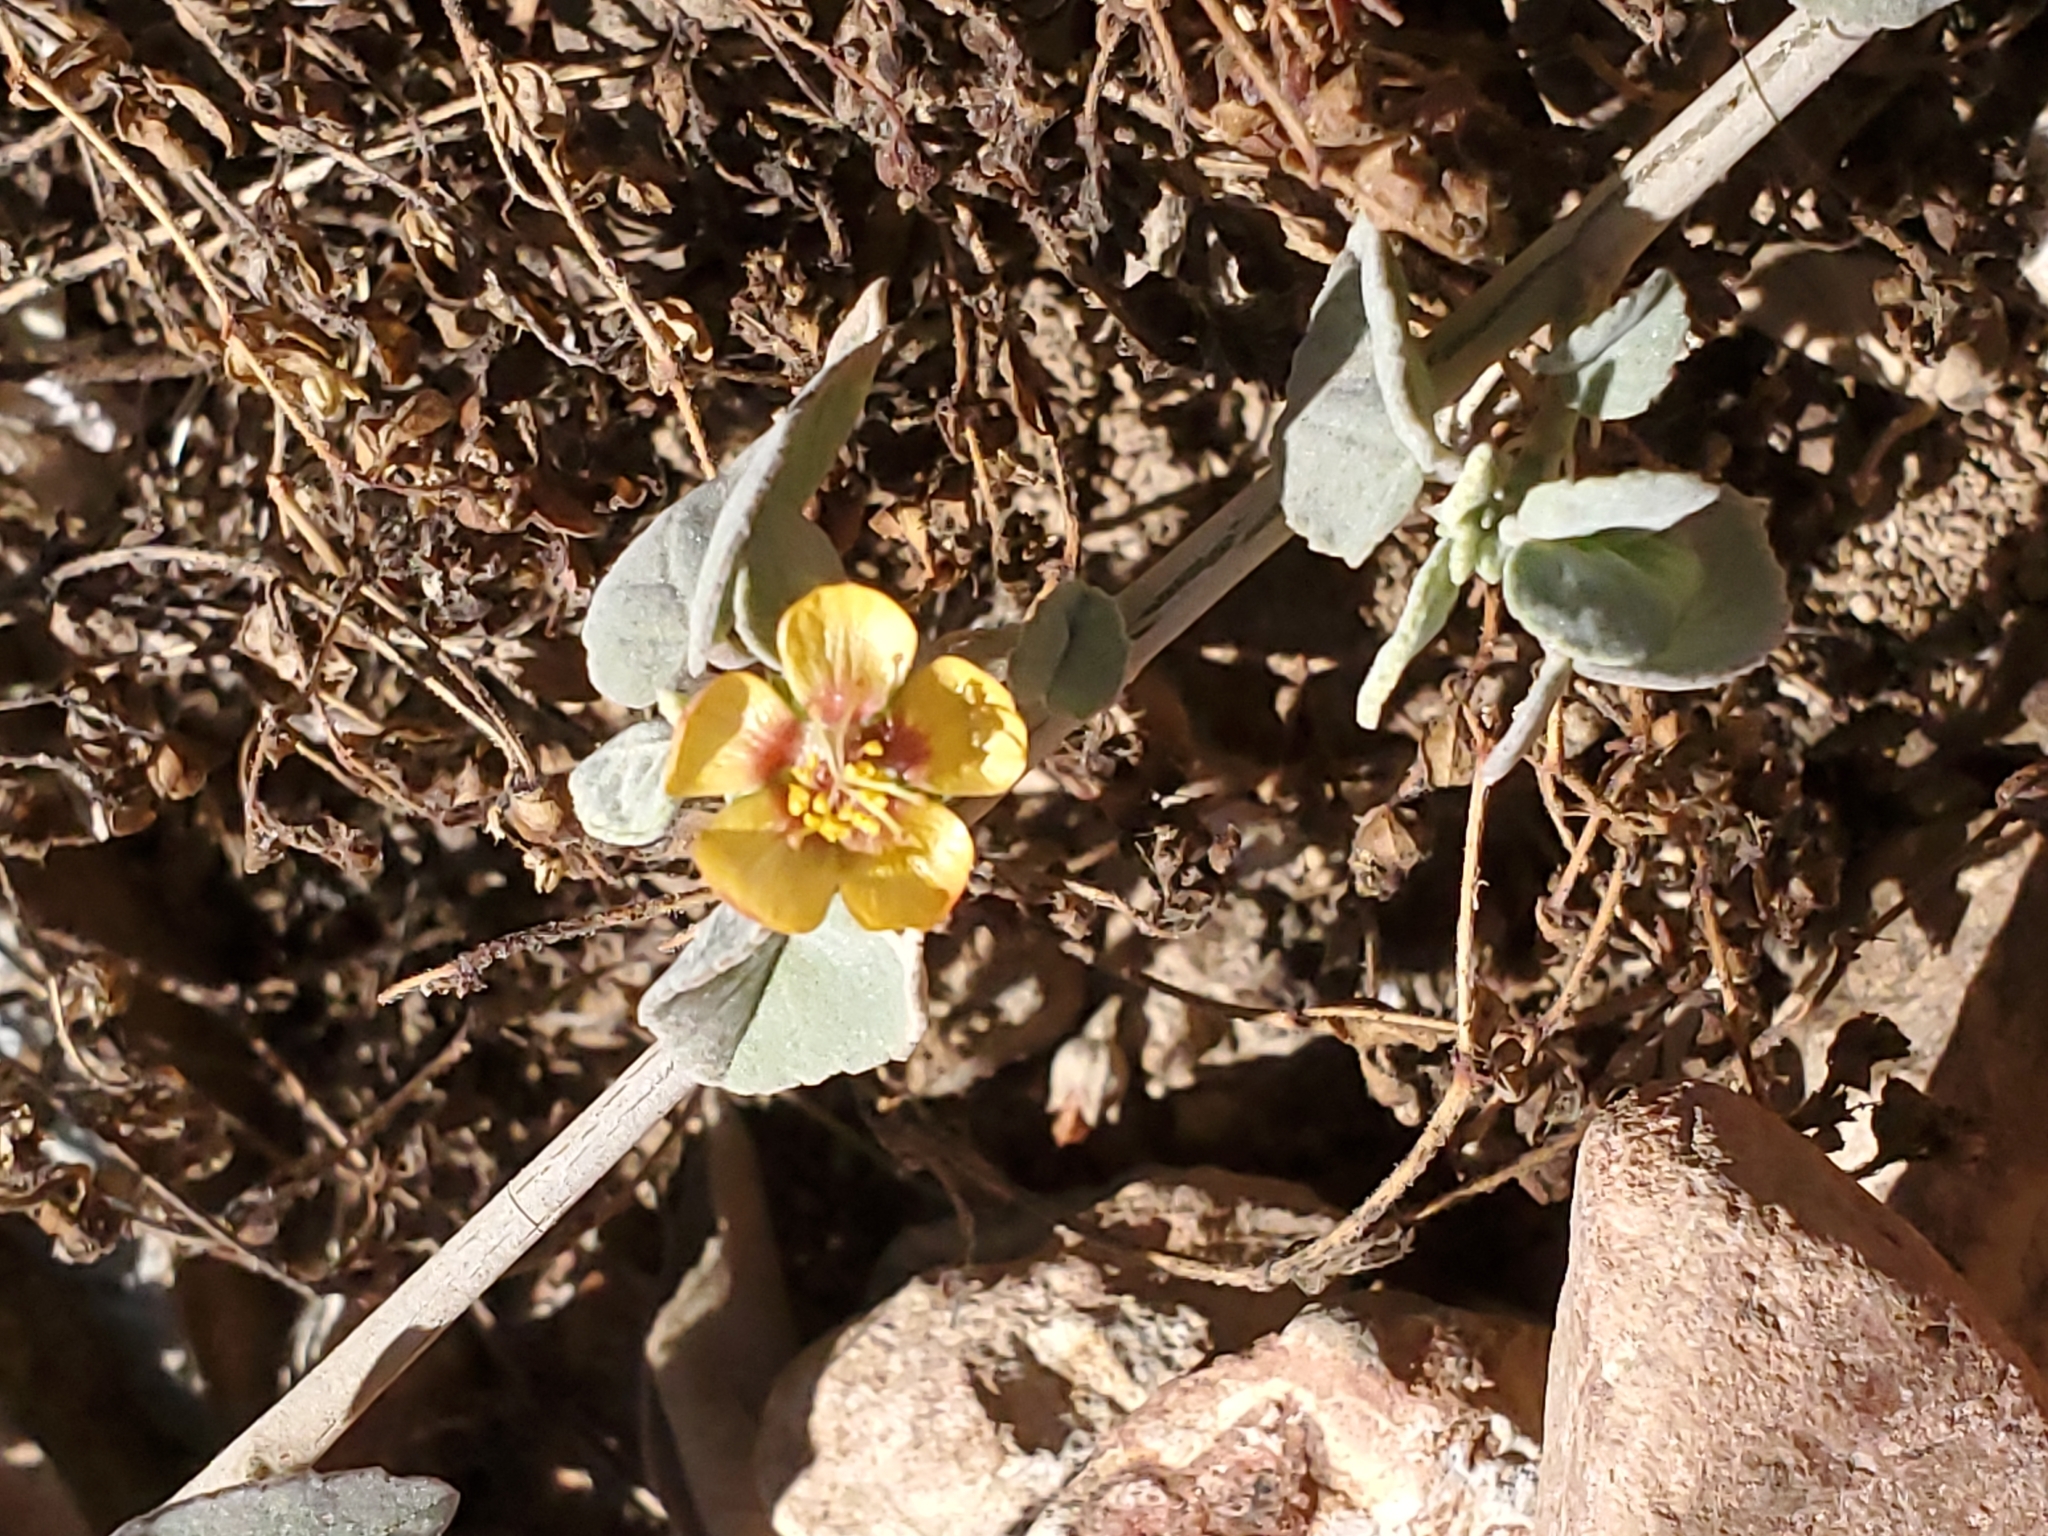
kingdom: Plantae
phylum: Tracheophyta
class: Magnoliopsida
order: Malvales
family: Malvaceae
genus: Abutilon
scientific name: Abutilon incanum
